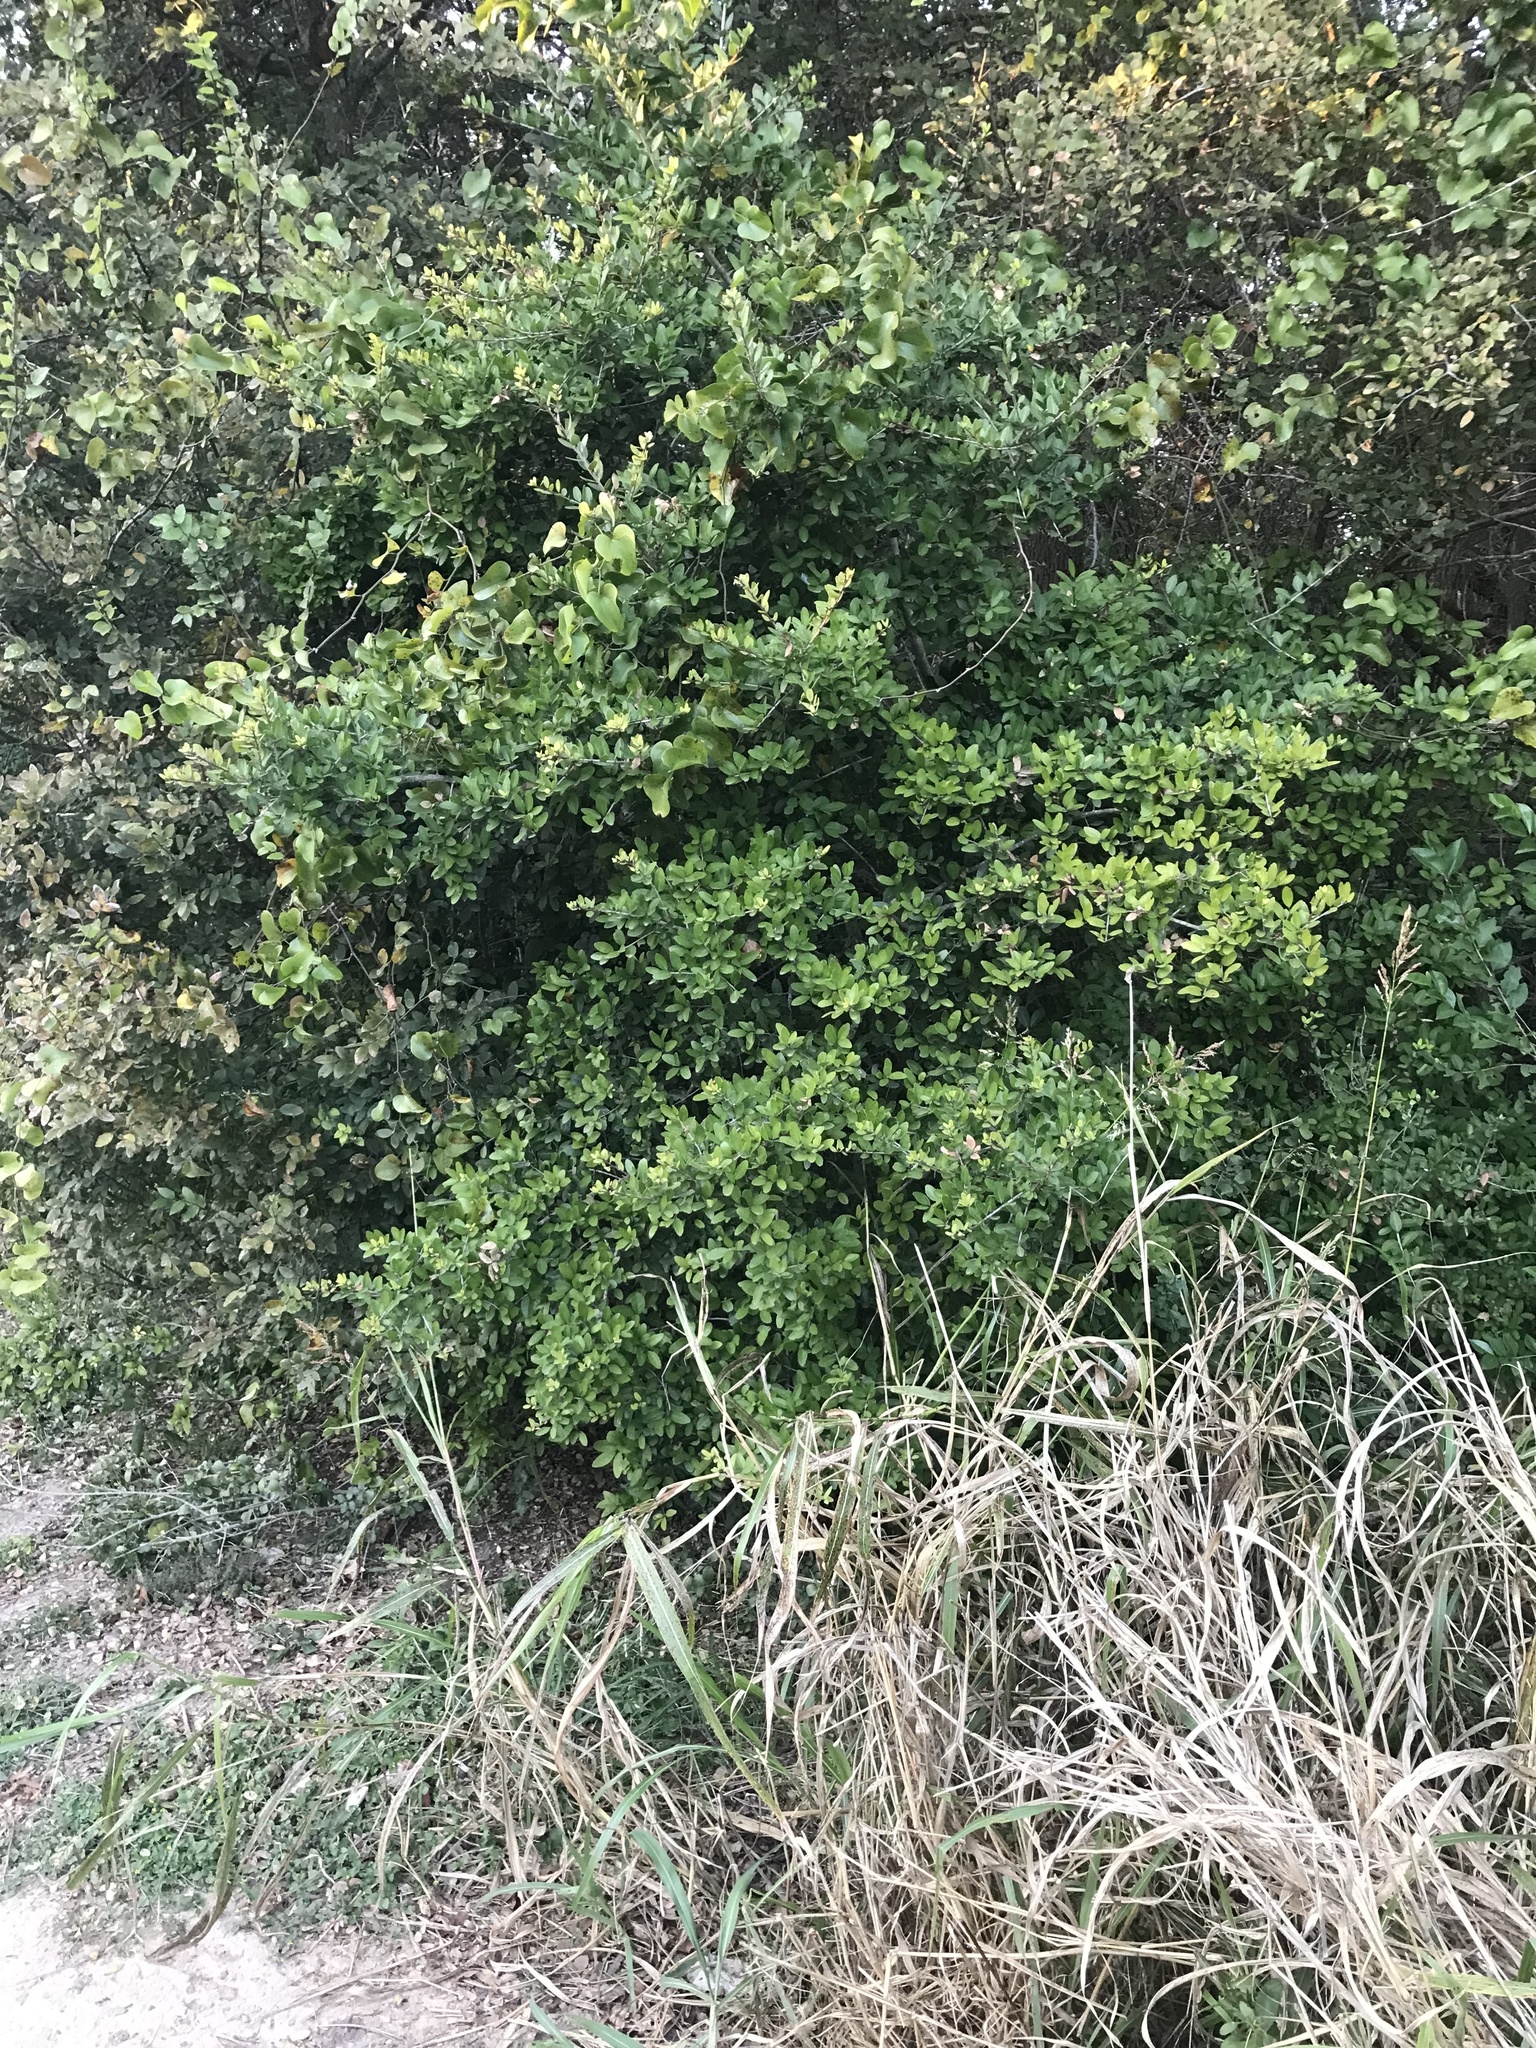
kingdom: Plantae
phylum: Tracheophyta
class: Magnoliopsida
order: Aquifoliales
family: Aquifoliaceae
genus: Ilex
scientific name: Ilex vomitoria
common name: Yaupon holly
